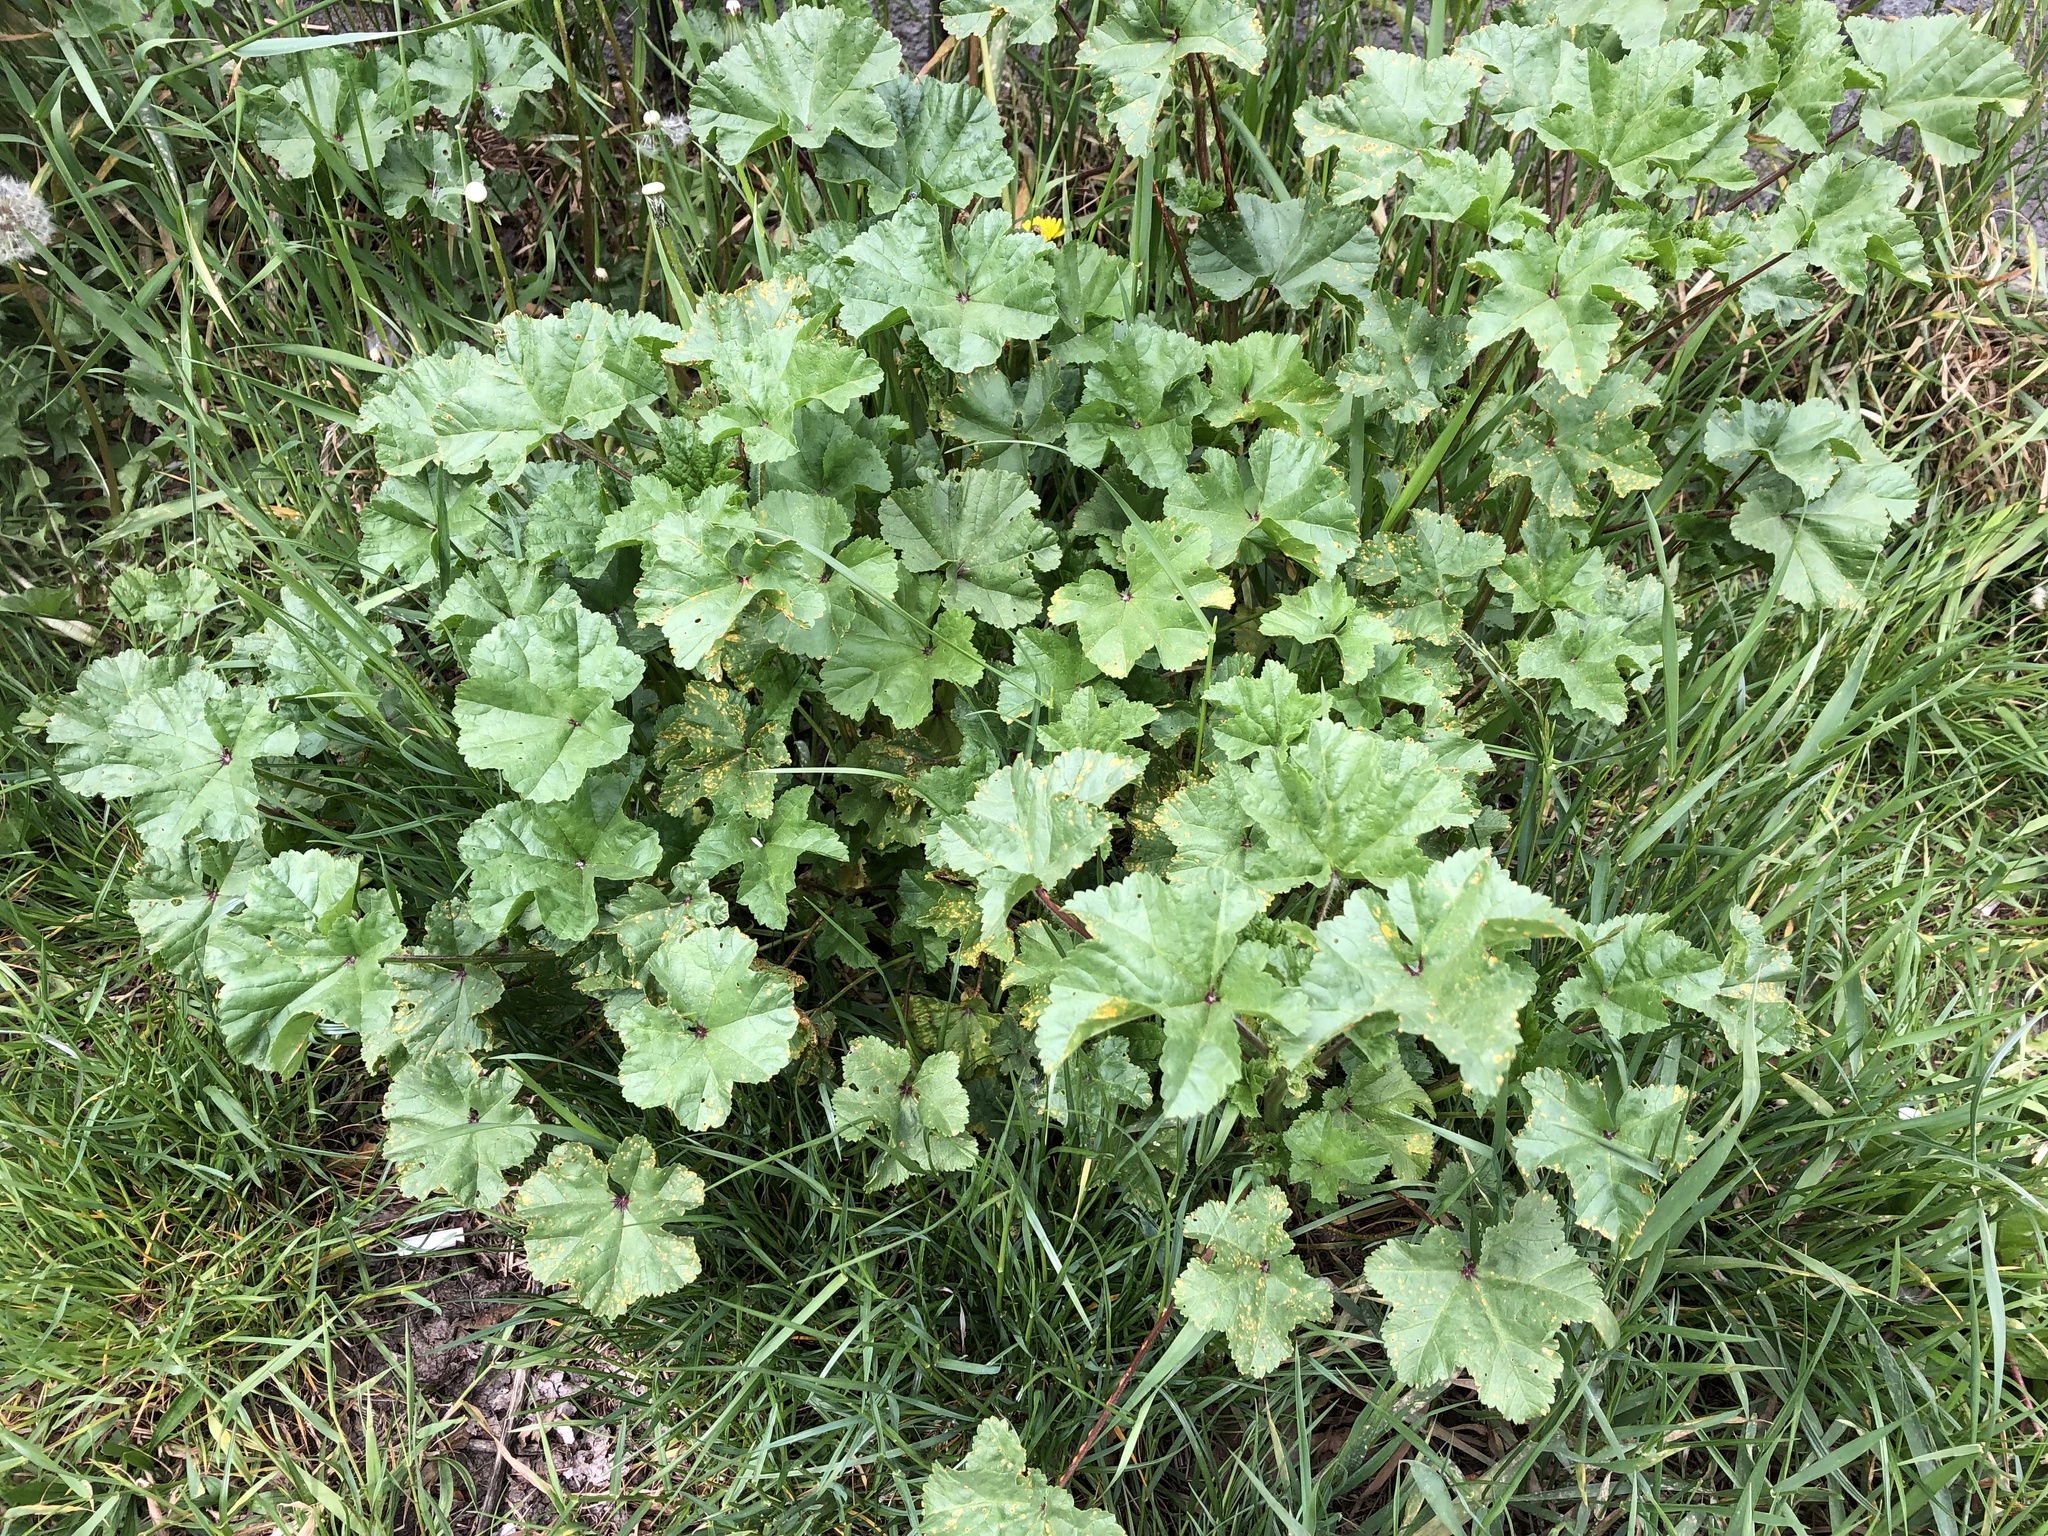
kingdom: Plantae
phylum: Tracheophyta
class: Magnoliopsida
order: Malvales
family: Malvaceae
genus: Malva
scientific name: Malva sylvestris
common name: Common mallow
